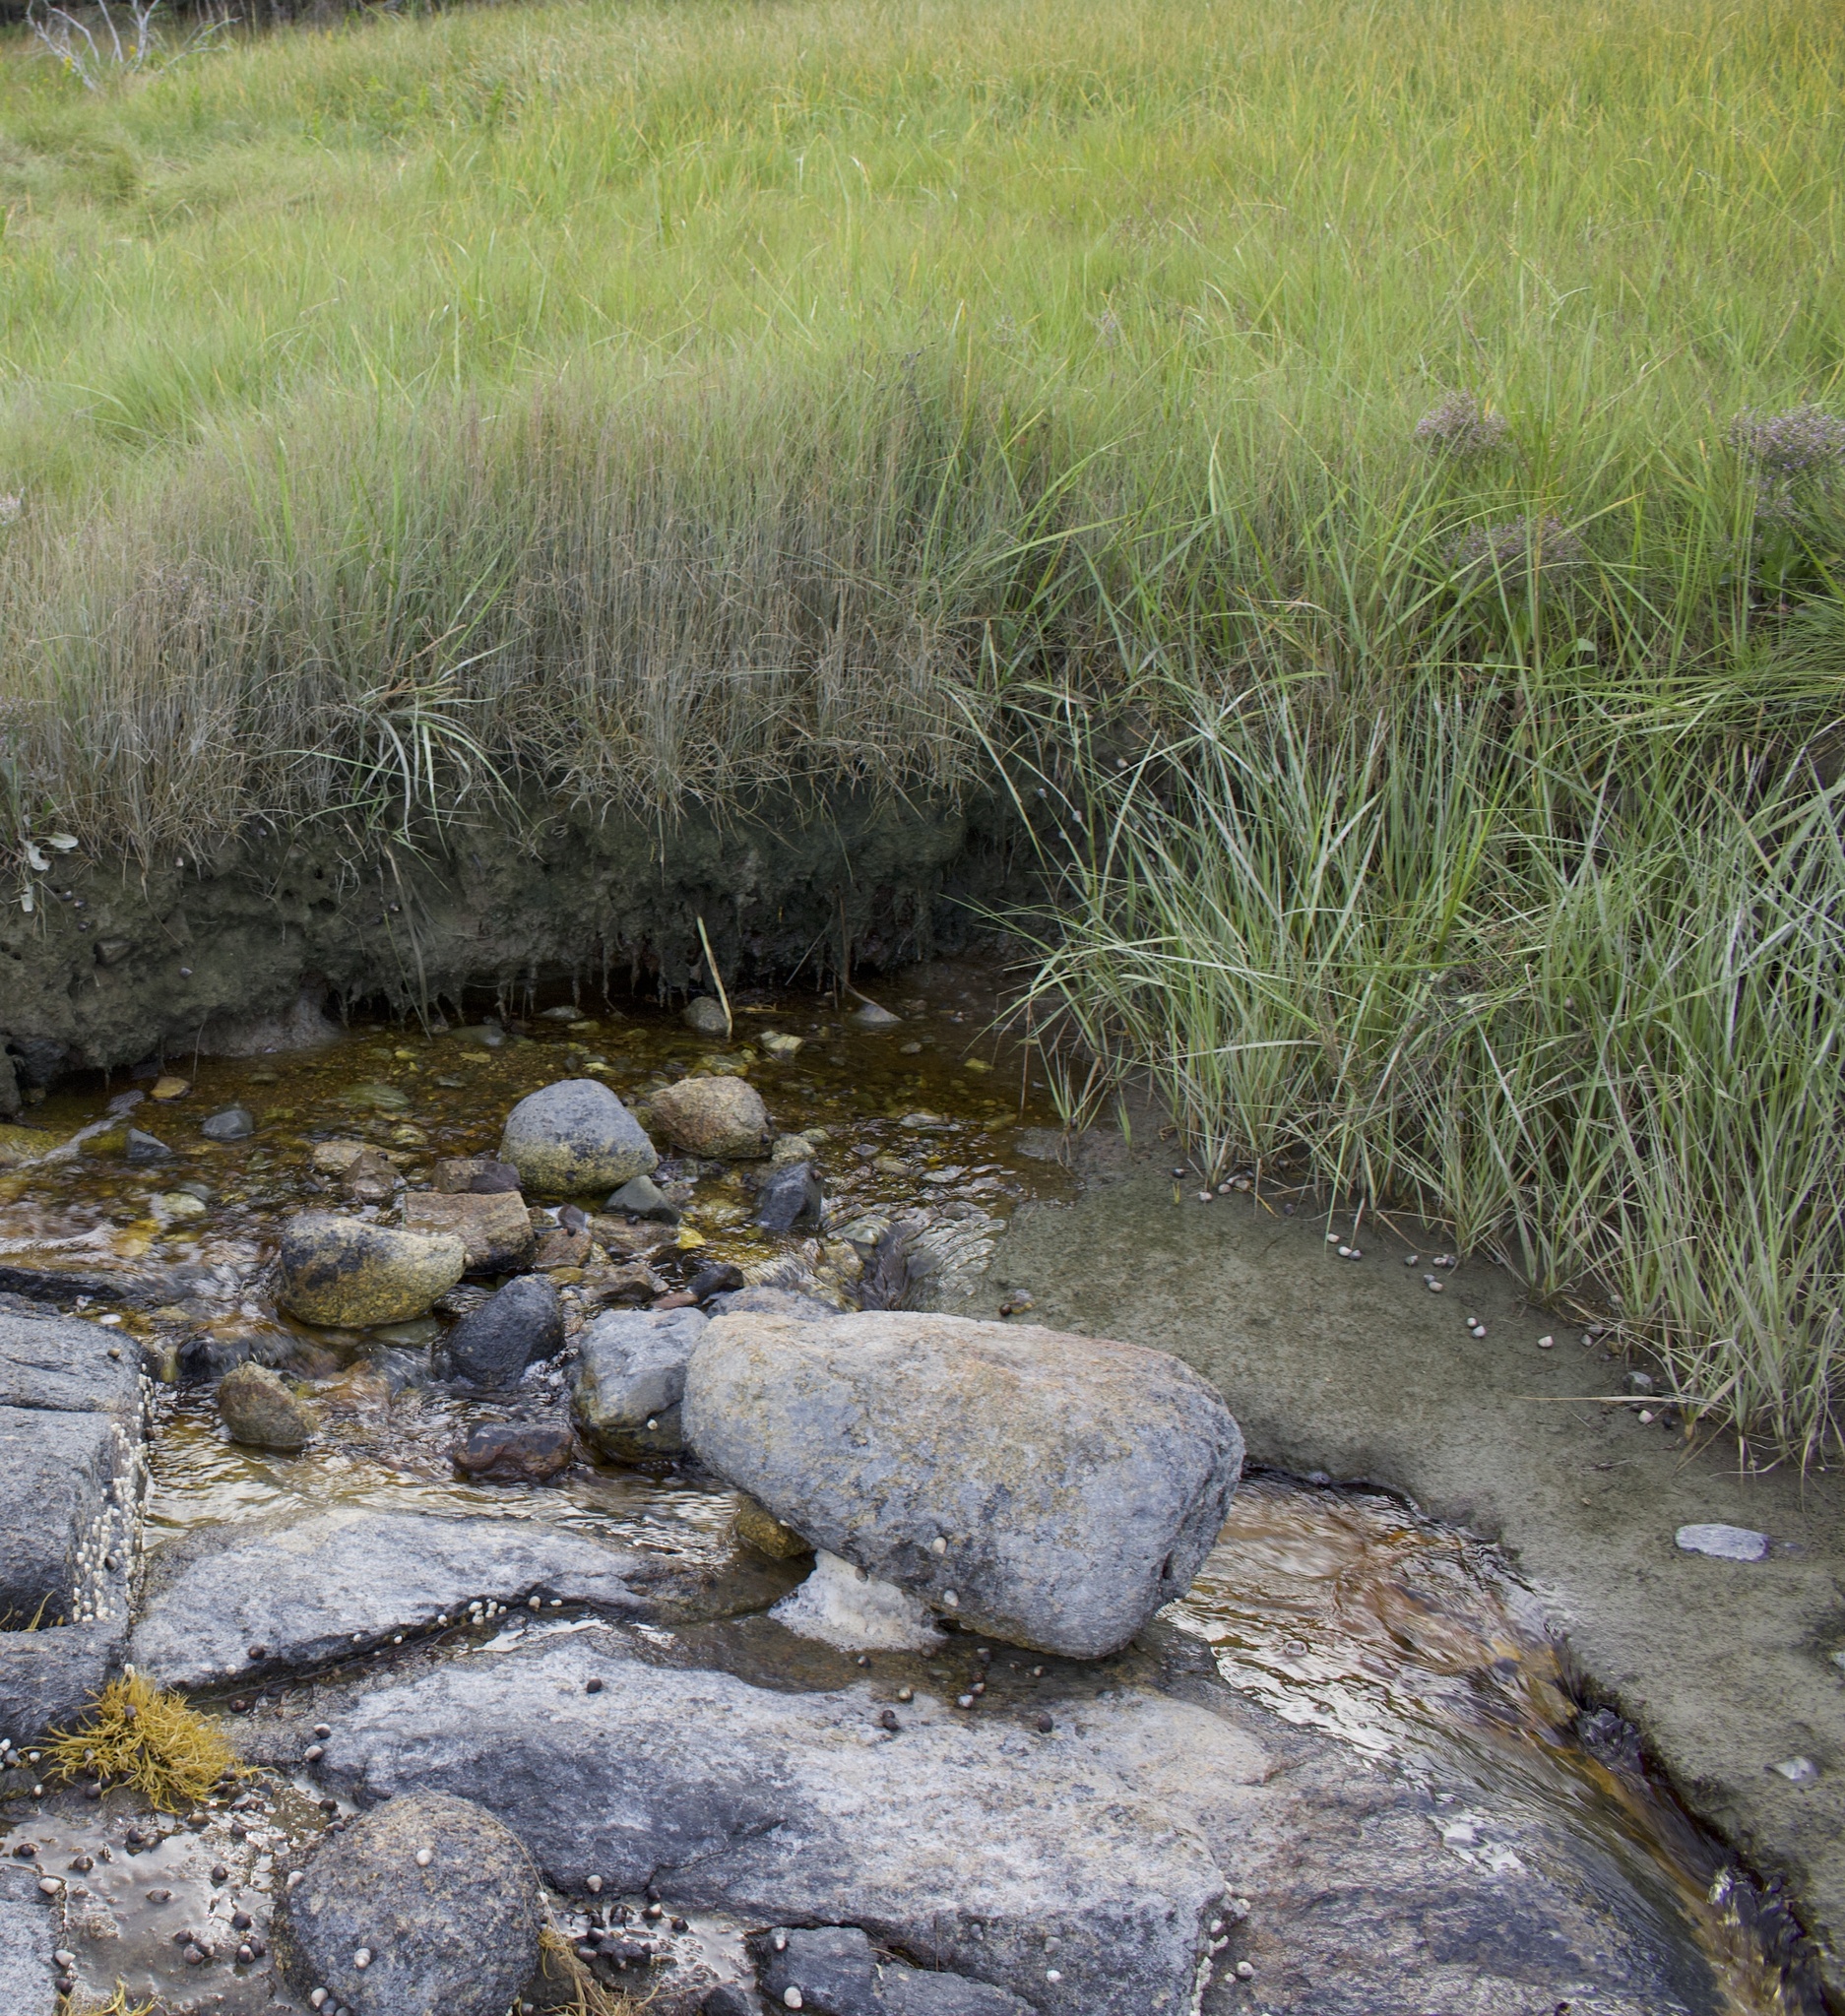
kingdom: Animalia
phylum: Mollusca
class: Gastropoda
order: Littorinimorpha
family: Littorinidae
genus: Littorina
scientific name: Littorina littorea
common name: Common periwinkle
